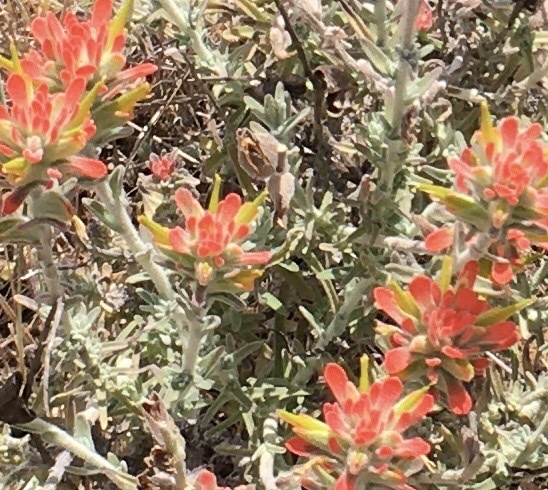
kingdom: Plantae
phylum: Tracheophyta
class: Magnoliopsida
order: Lamiales
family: Orobanchaceae
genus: Castilleja
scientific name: Castilleja foliolosa
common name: Woolly indian paintbrush
